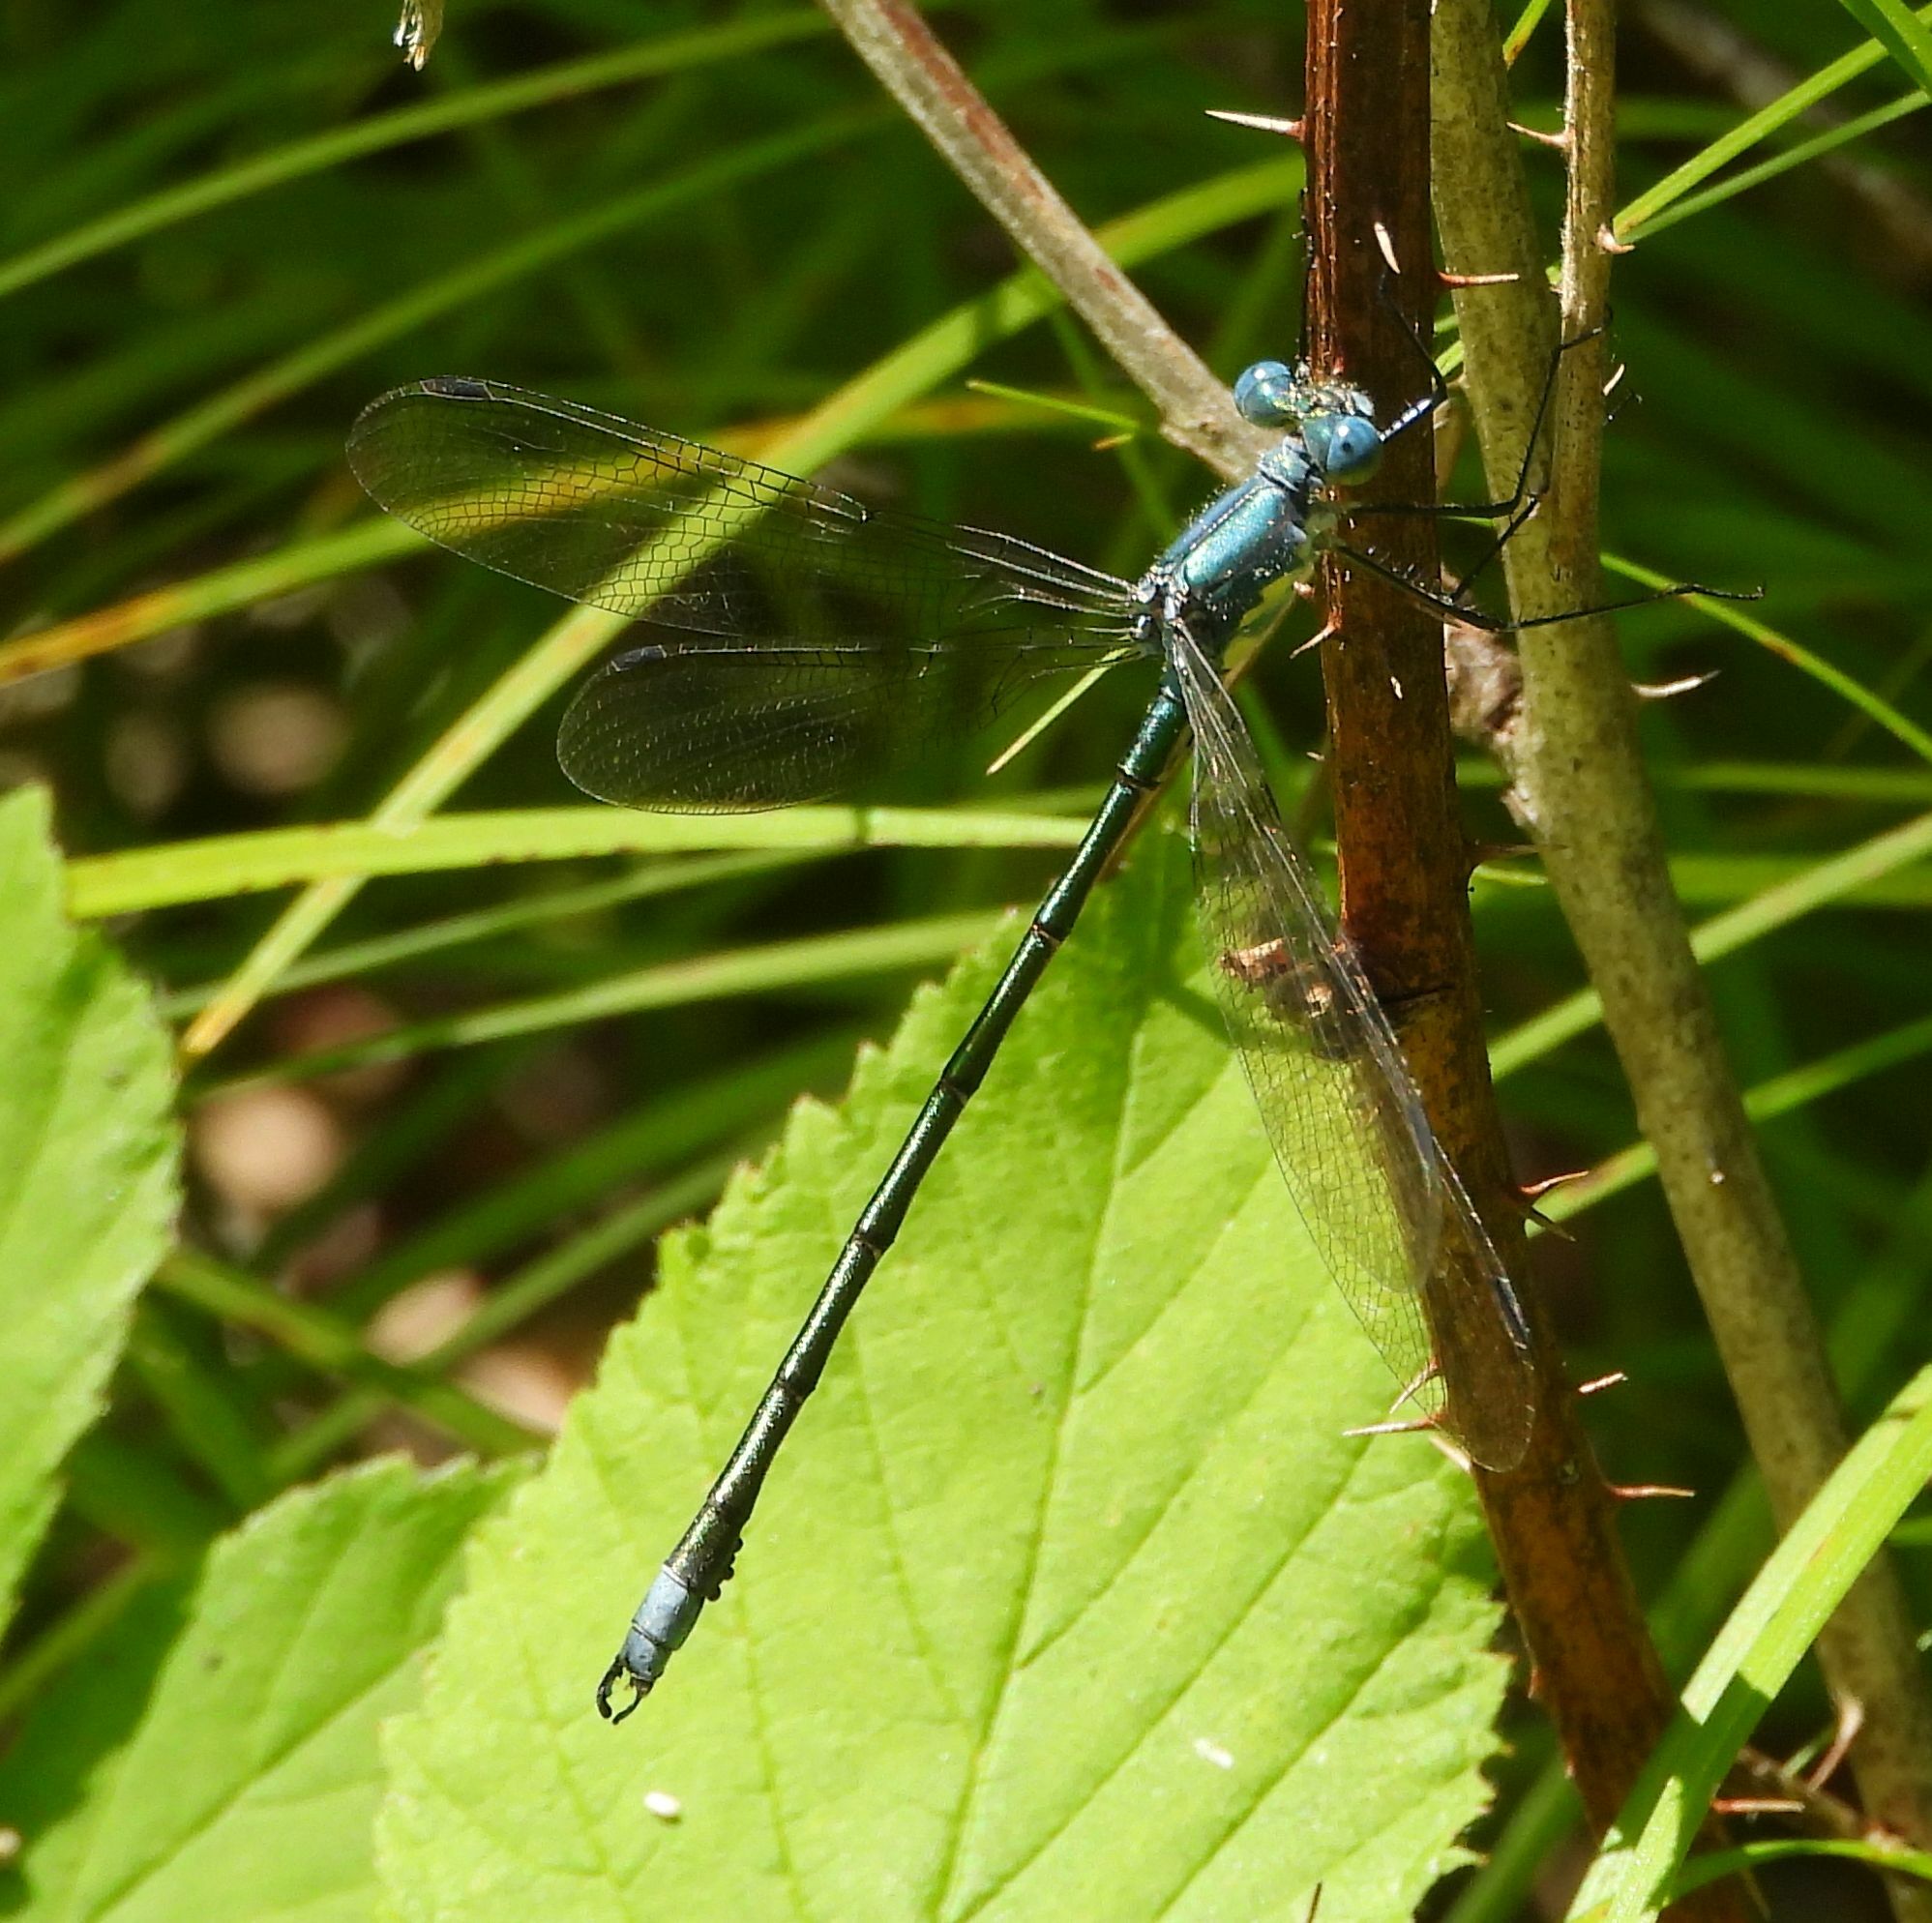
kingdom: Animalia
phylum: Arthropoda
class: Insecta
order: Odonata
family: Lestidae
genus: Lestes
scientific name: Lestes eurinus
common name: Amber-winged spreadwing
